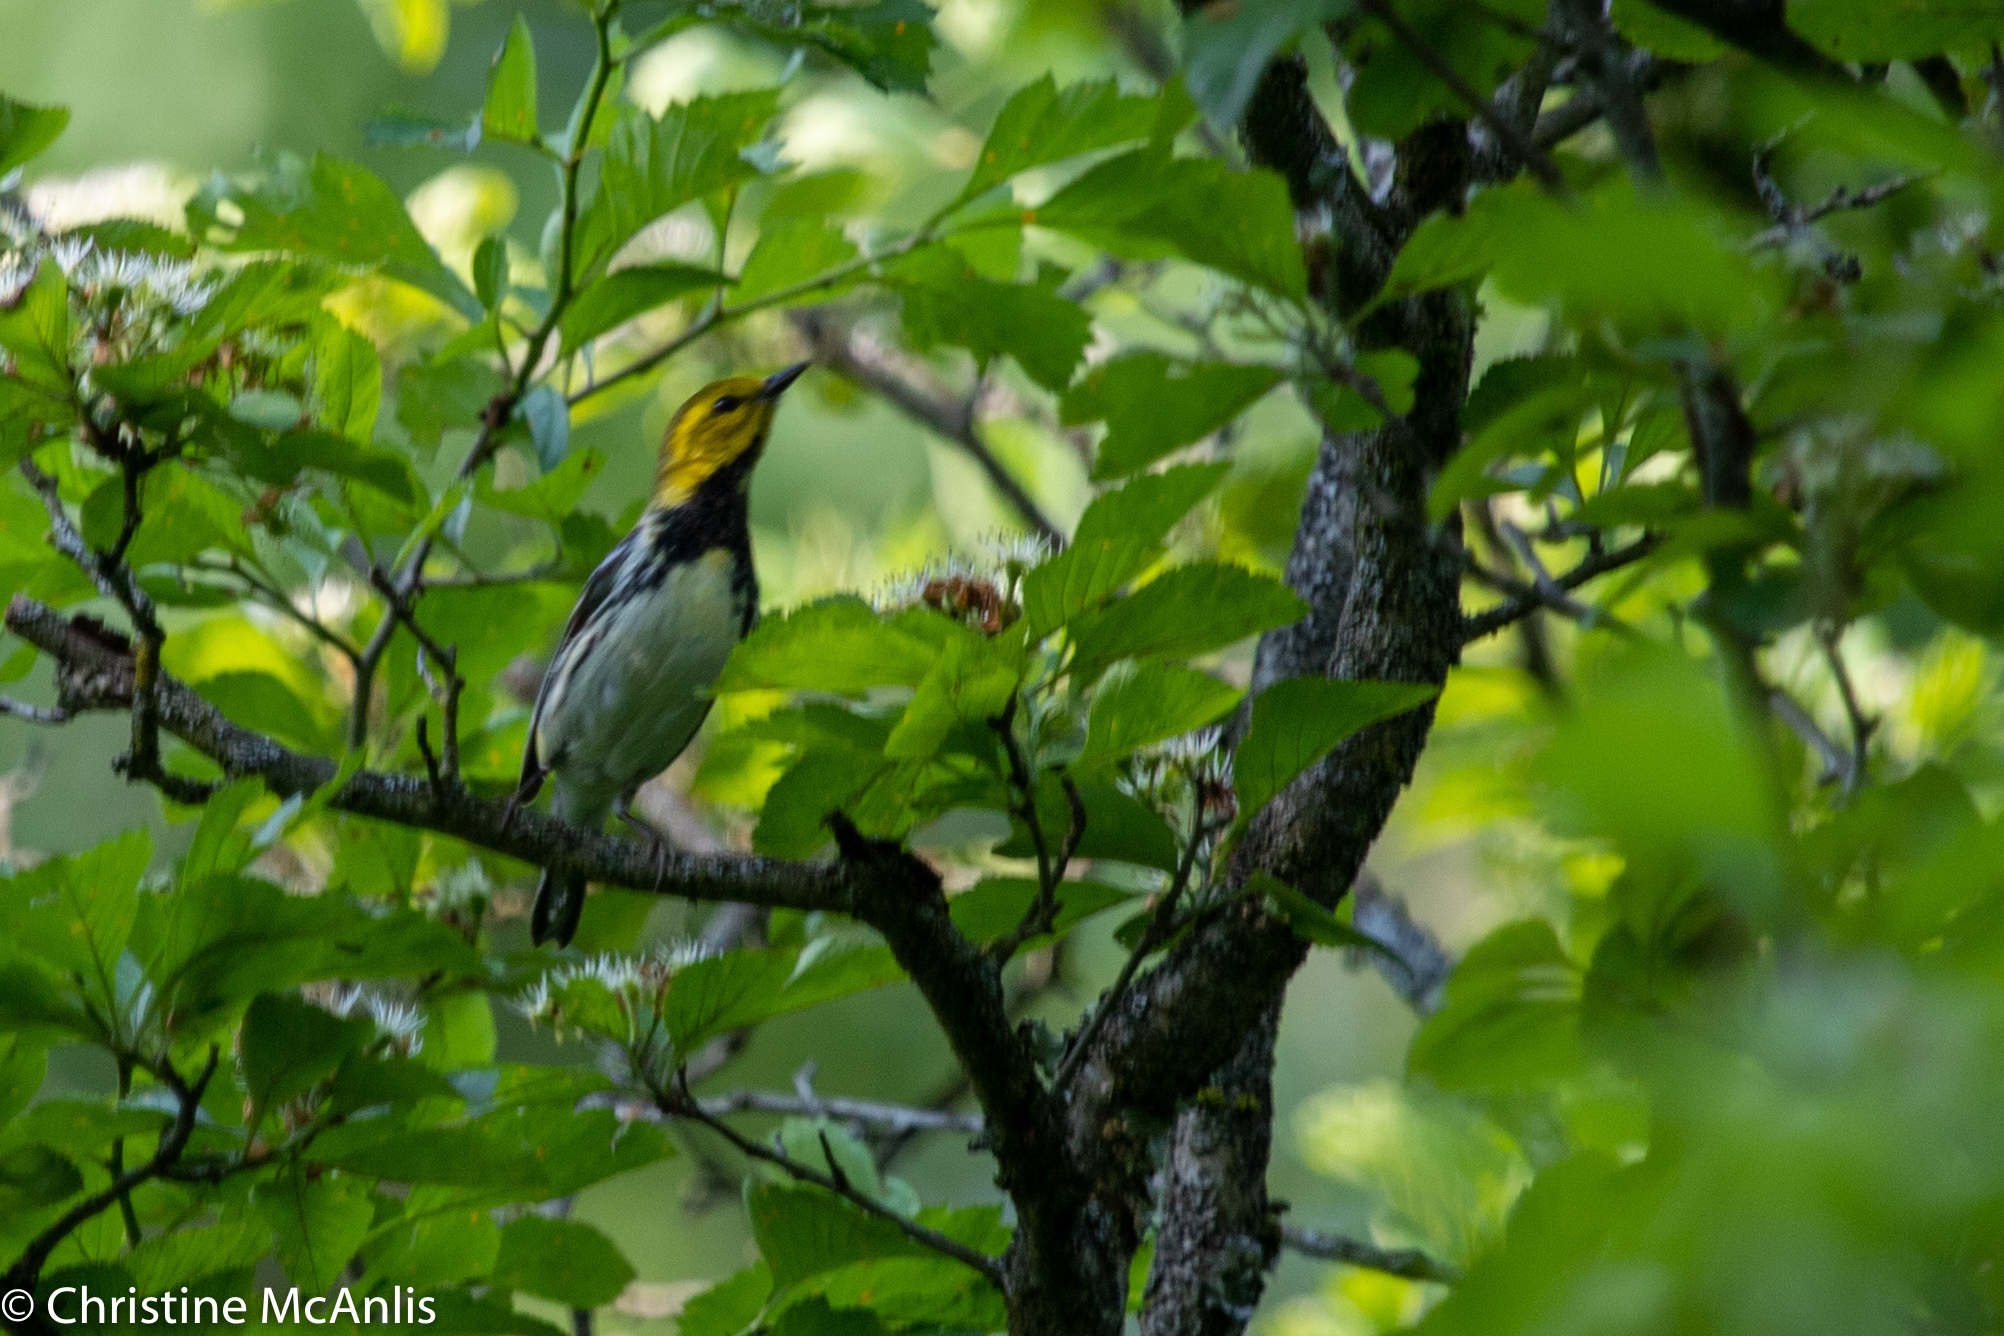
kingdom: Animalia
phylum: Chordata
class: Aves
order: Passeriformes
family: Parulidae
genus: Setophaga
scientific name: Setophaga virens
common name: Black-throated green warbler
